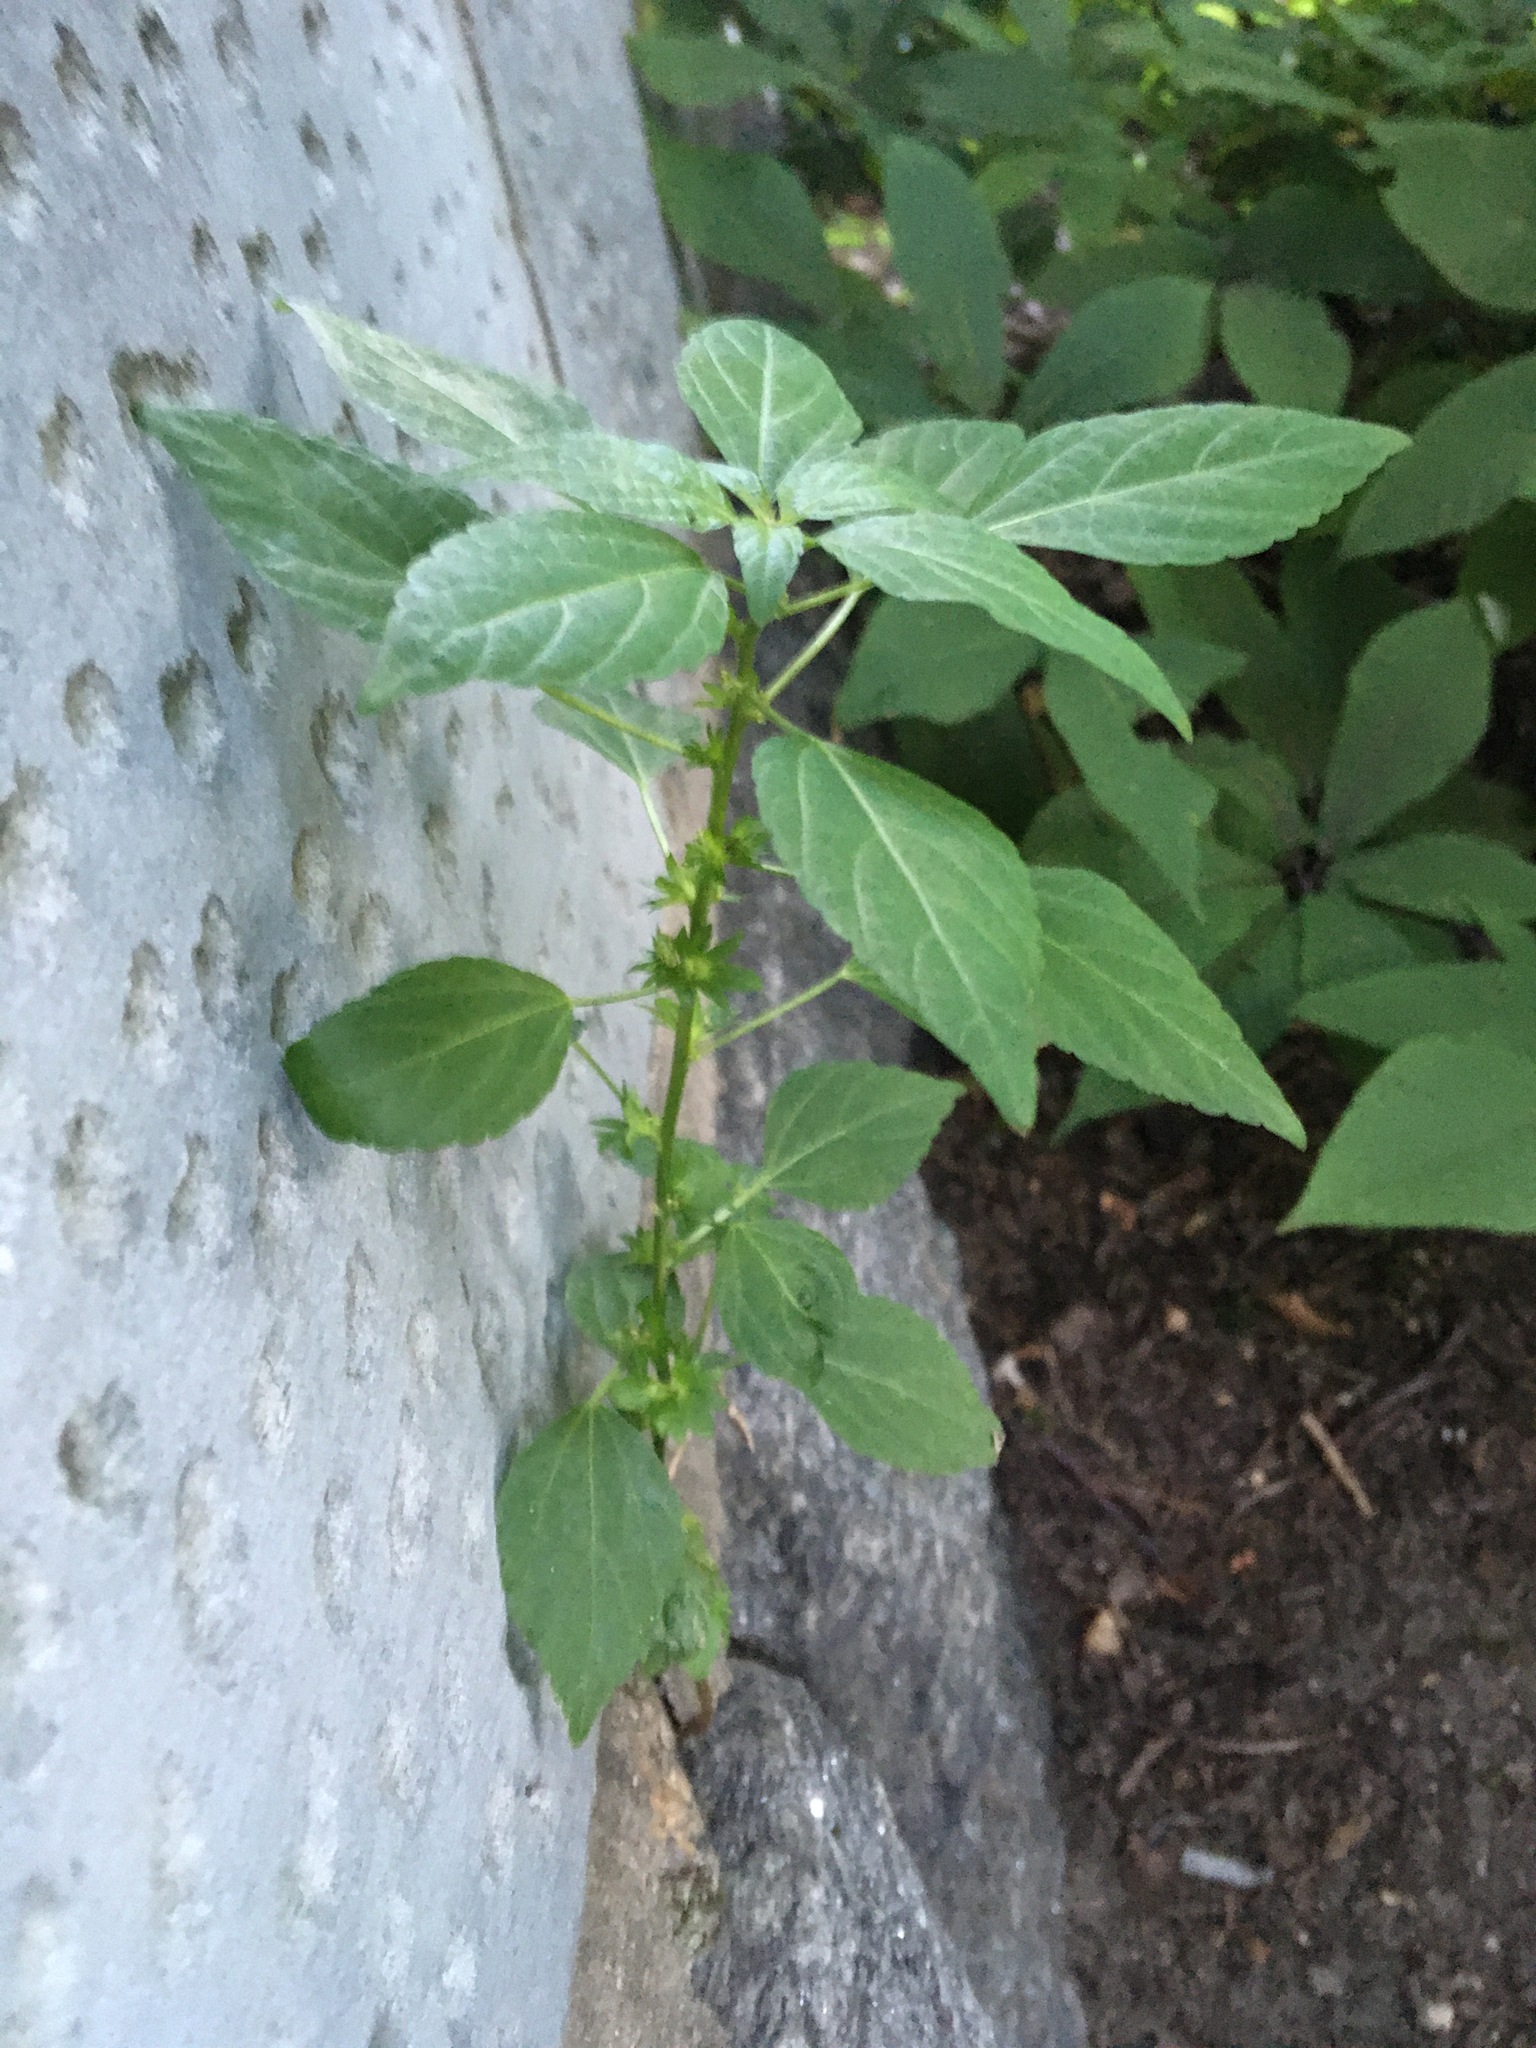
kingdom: Plantae
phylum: Tracheophyta
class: Magnoliopsida
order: Malpighiales
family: Euphorbiaceae
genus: Acalypha
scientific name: Acalypha rhomboidea
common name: Rhombic copperleaf
